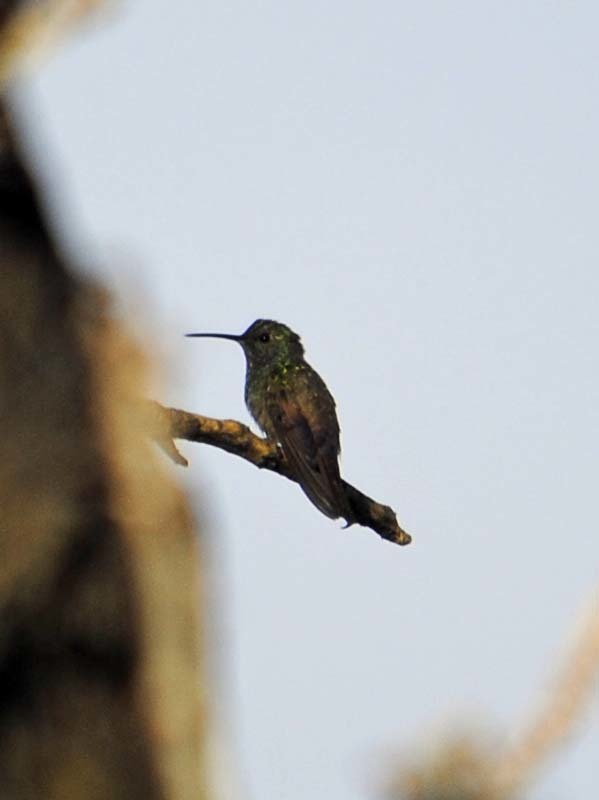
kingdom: Animalia
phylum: Chordata
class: Aves
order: Apodiformes
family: Trochilidae
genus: Saucerottia
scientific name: Saucerottia beryllina
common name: Berylline hummingbird
